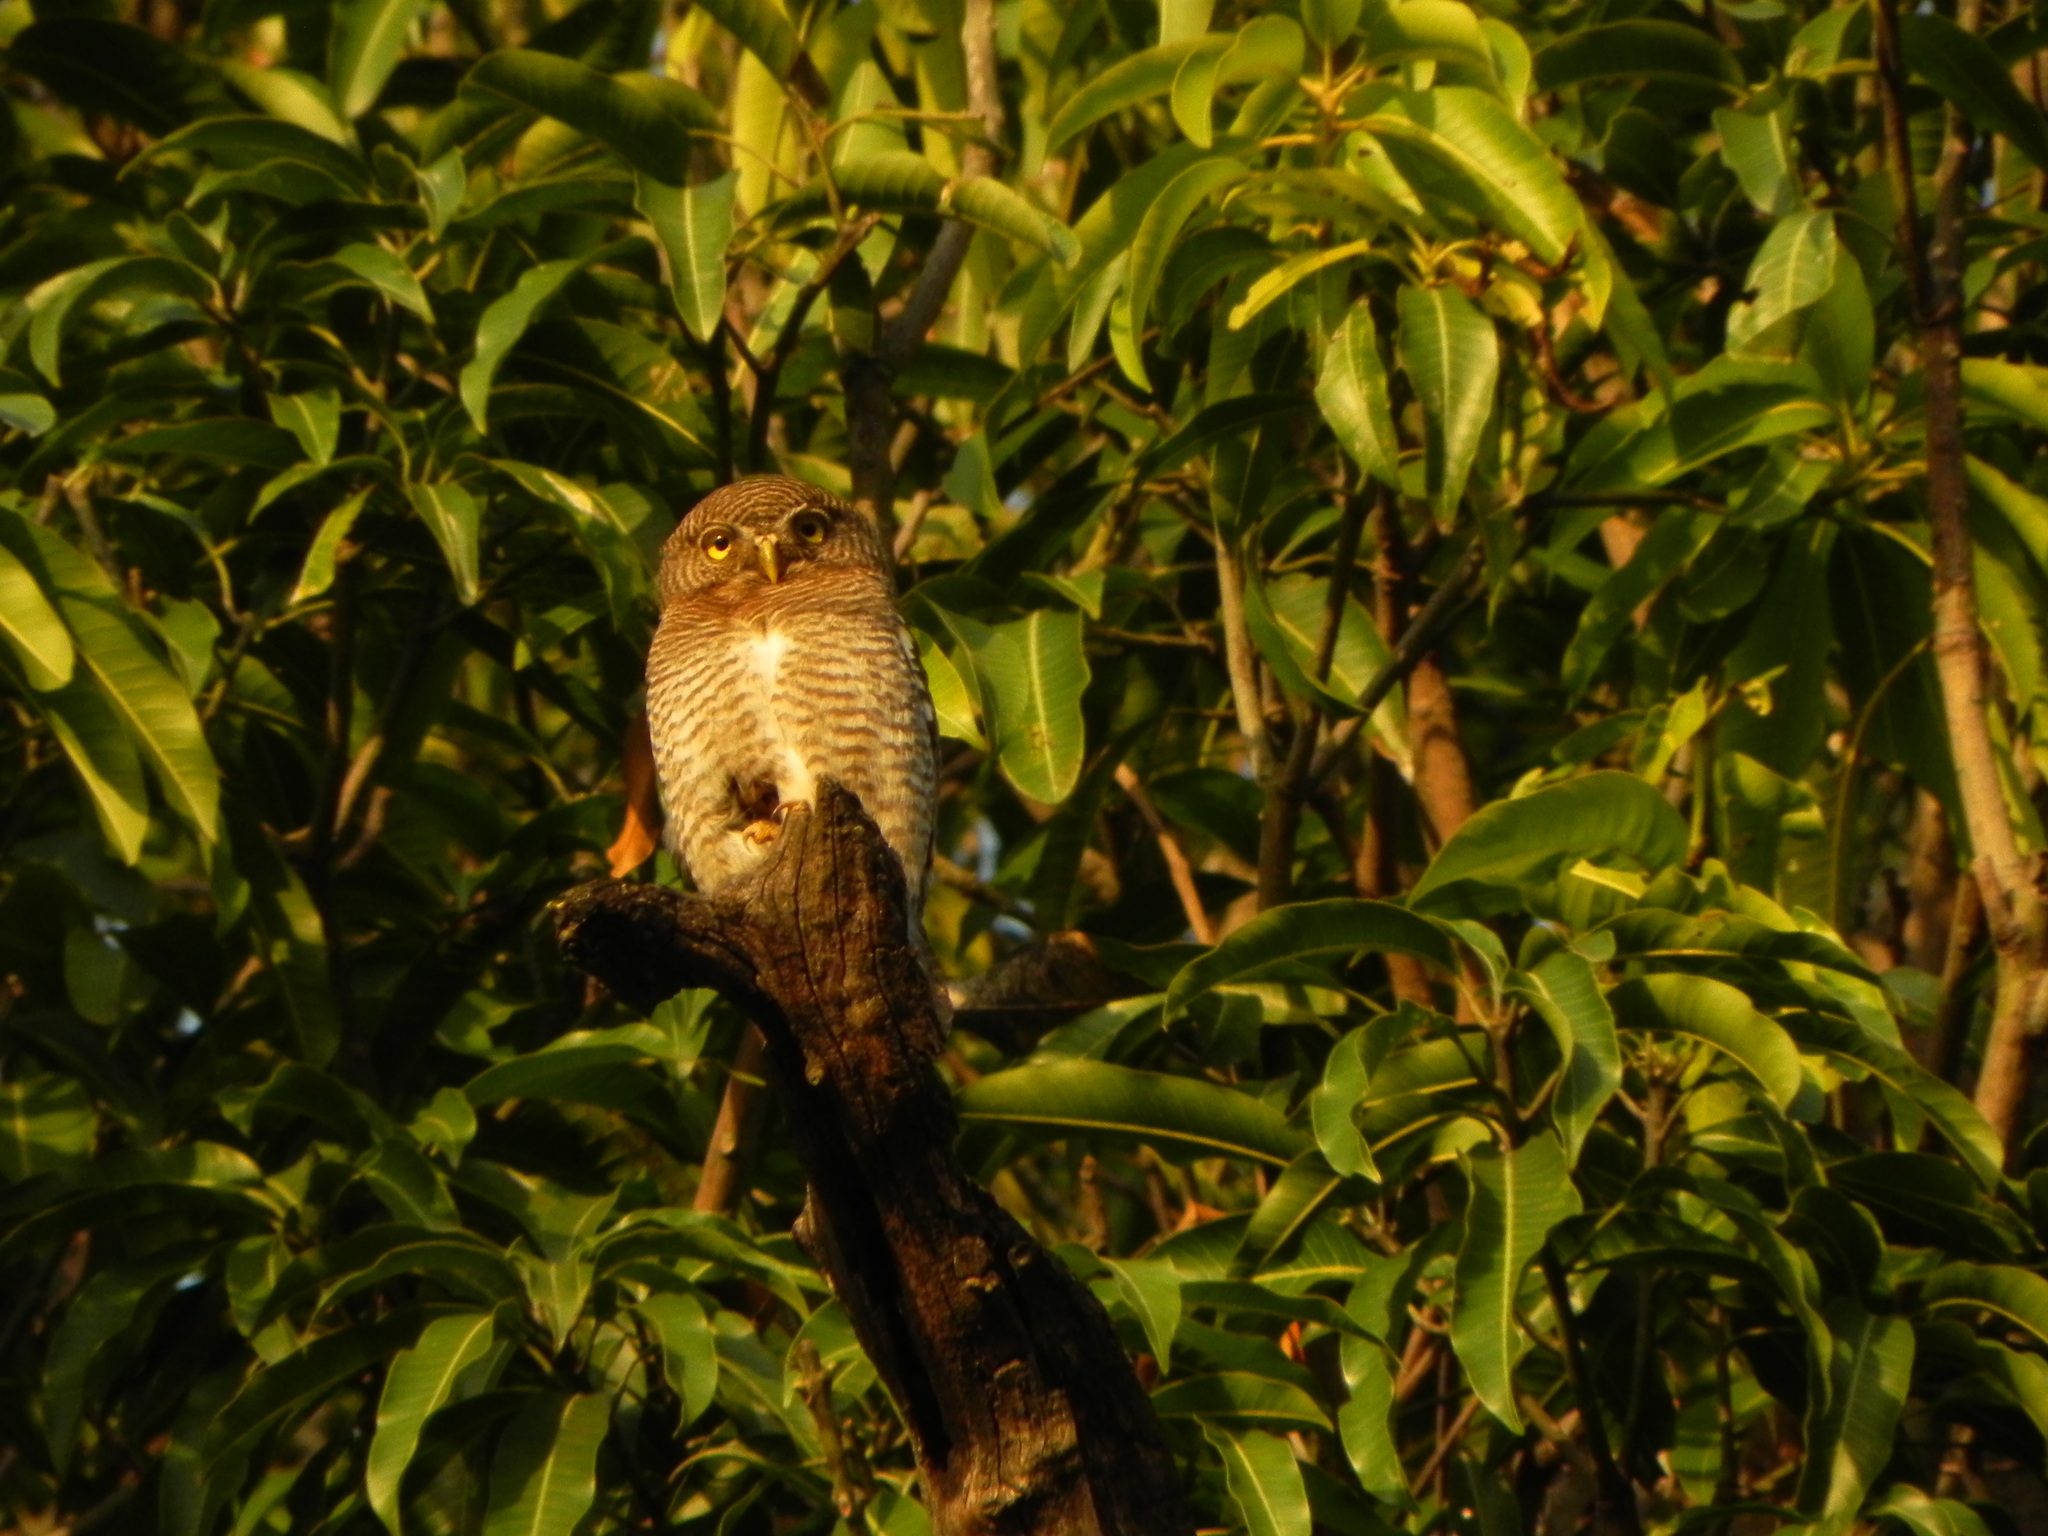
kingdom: Animalia
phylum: Chordata
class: Aves
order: Strigiformes
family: Strigidae
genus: Glaucidium
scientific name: Glaucidium radiatum
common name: Jungle owlet
